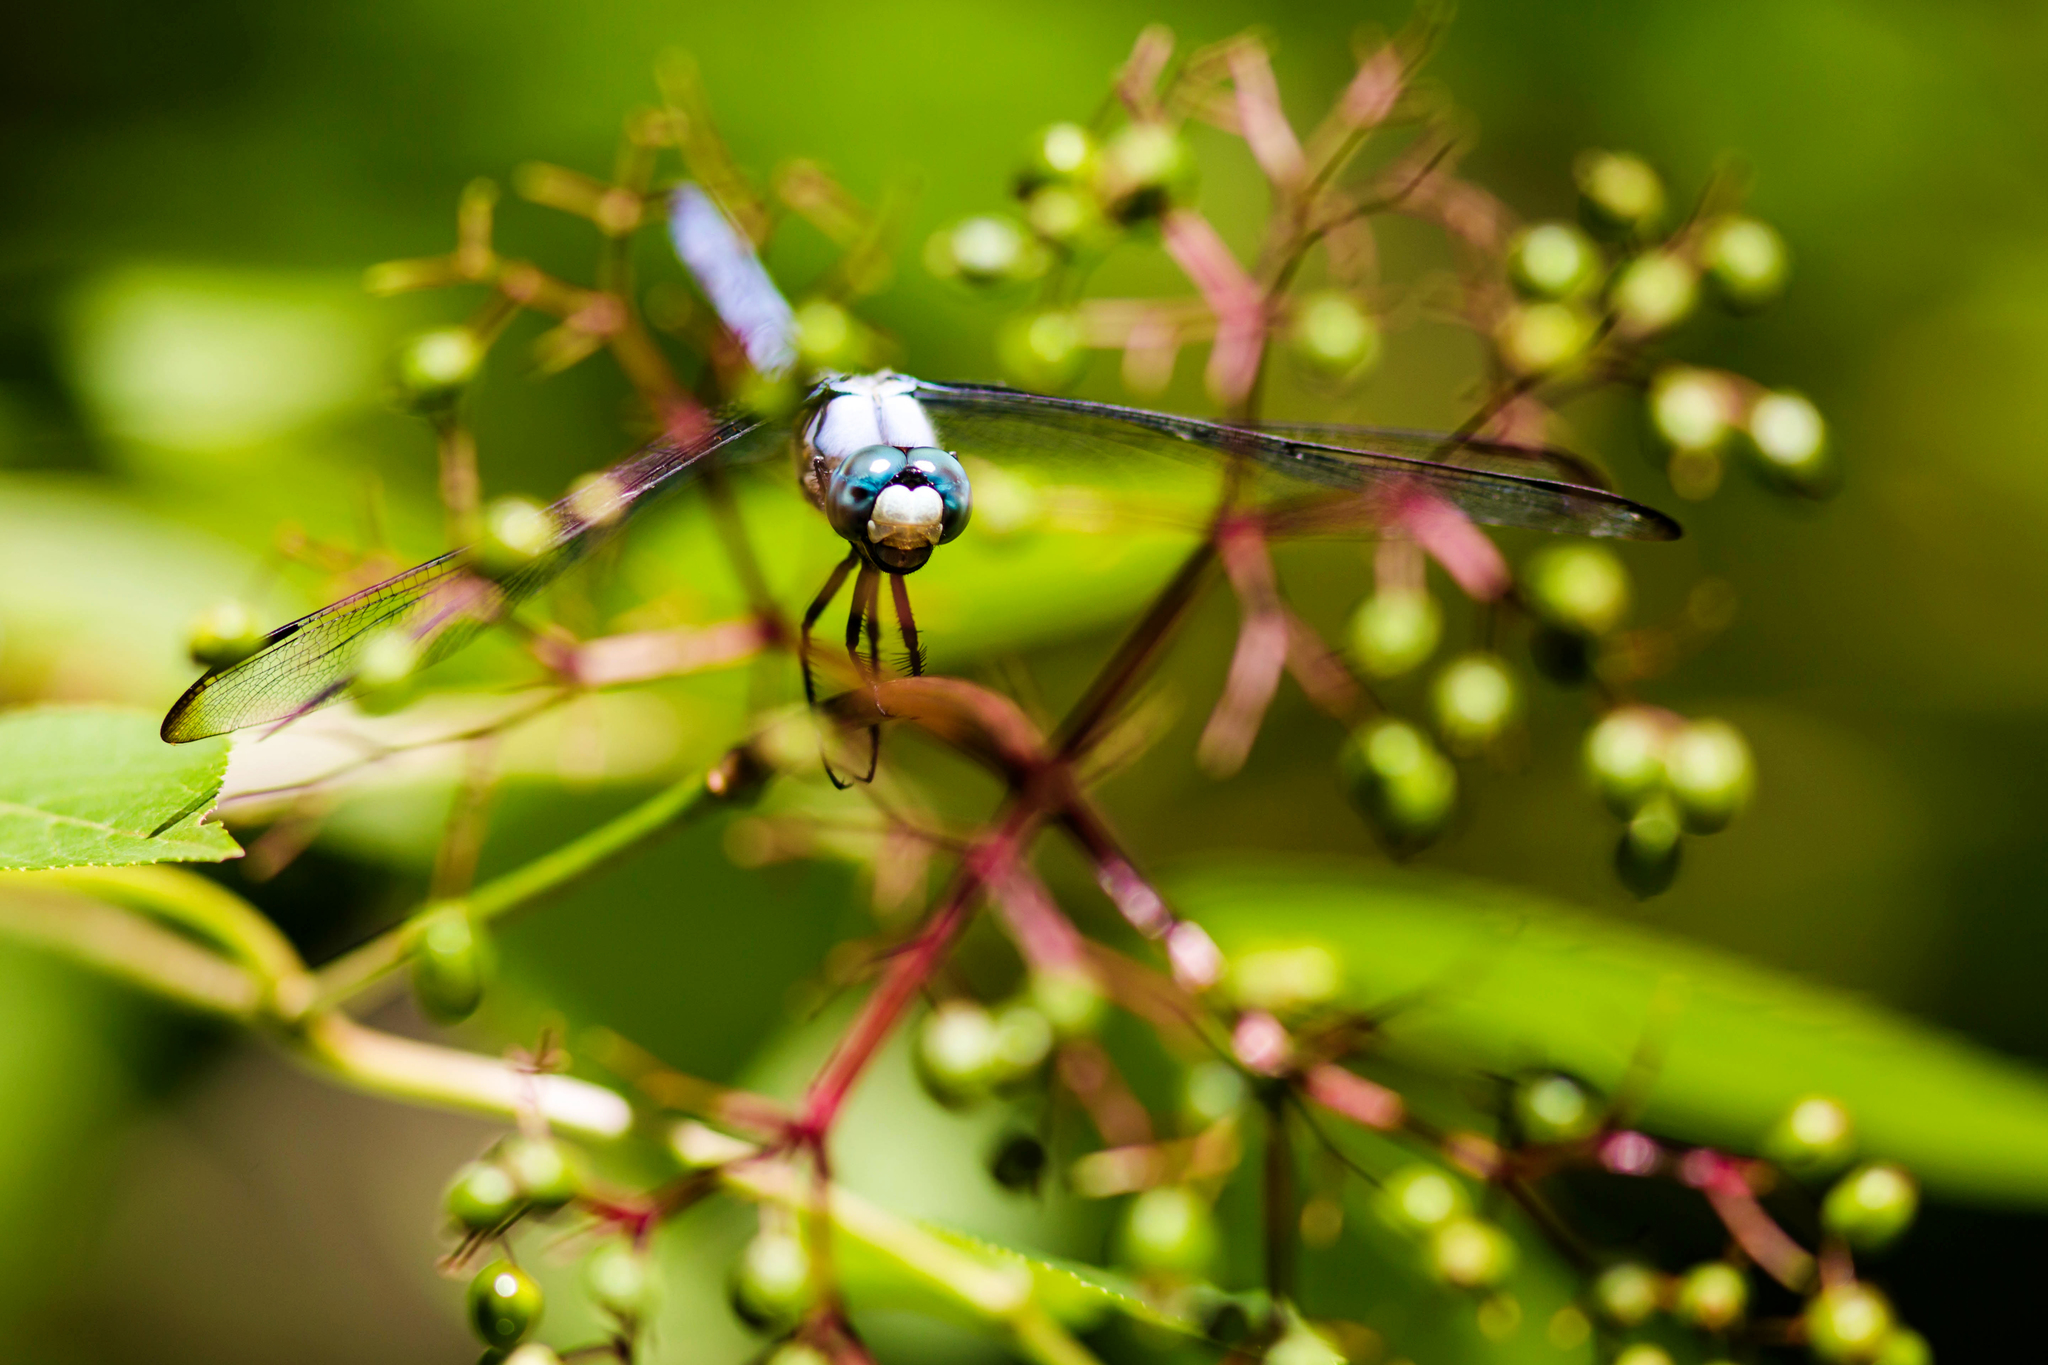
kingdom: Animalia
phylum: Arthropoda
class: Insecta
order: Odonata
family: Libellulidae
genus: Libellula
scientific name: Libellula vibrans
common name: Great blue skimmer
